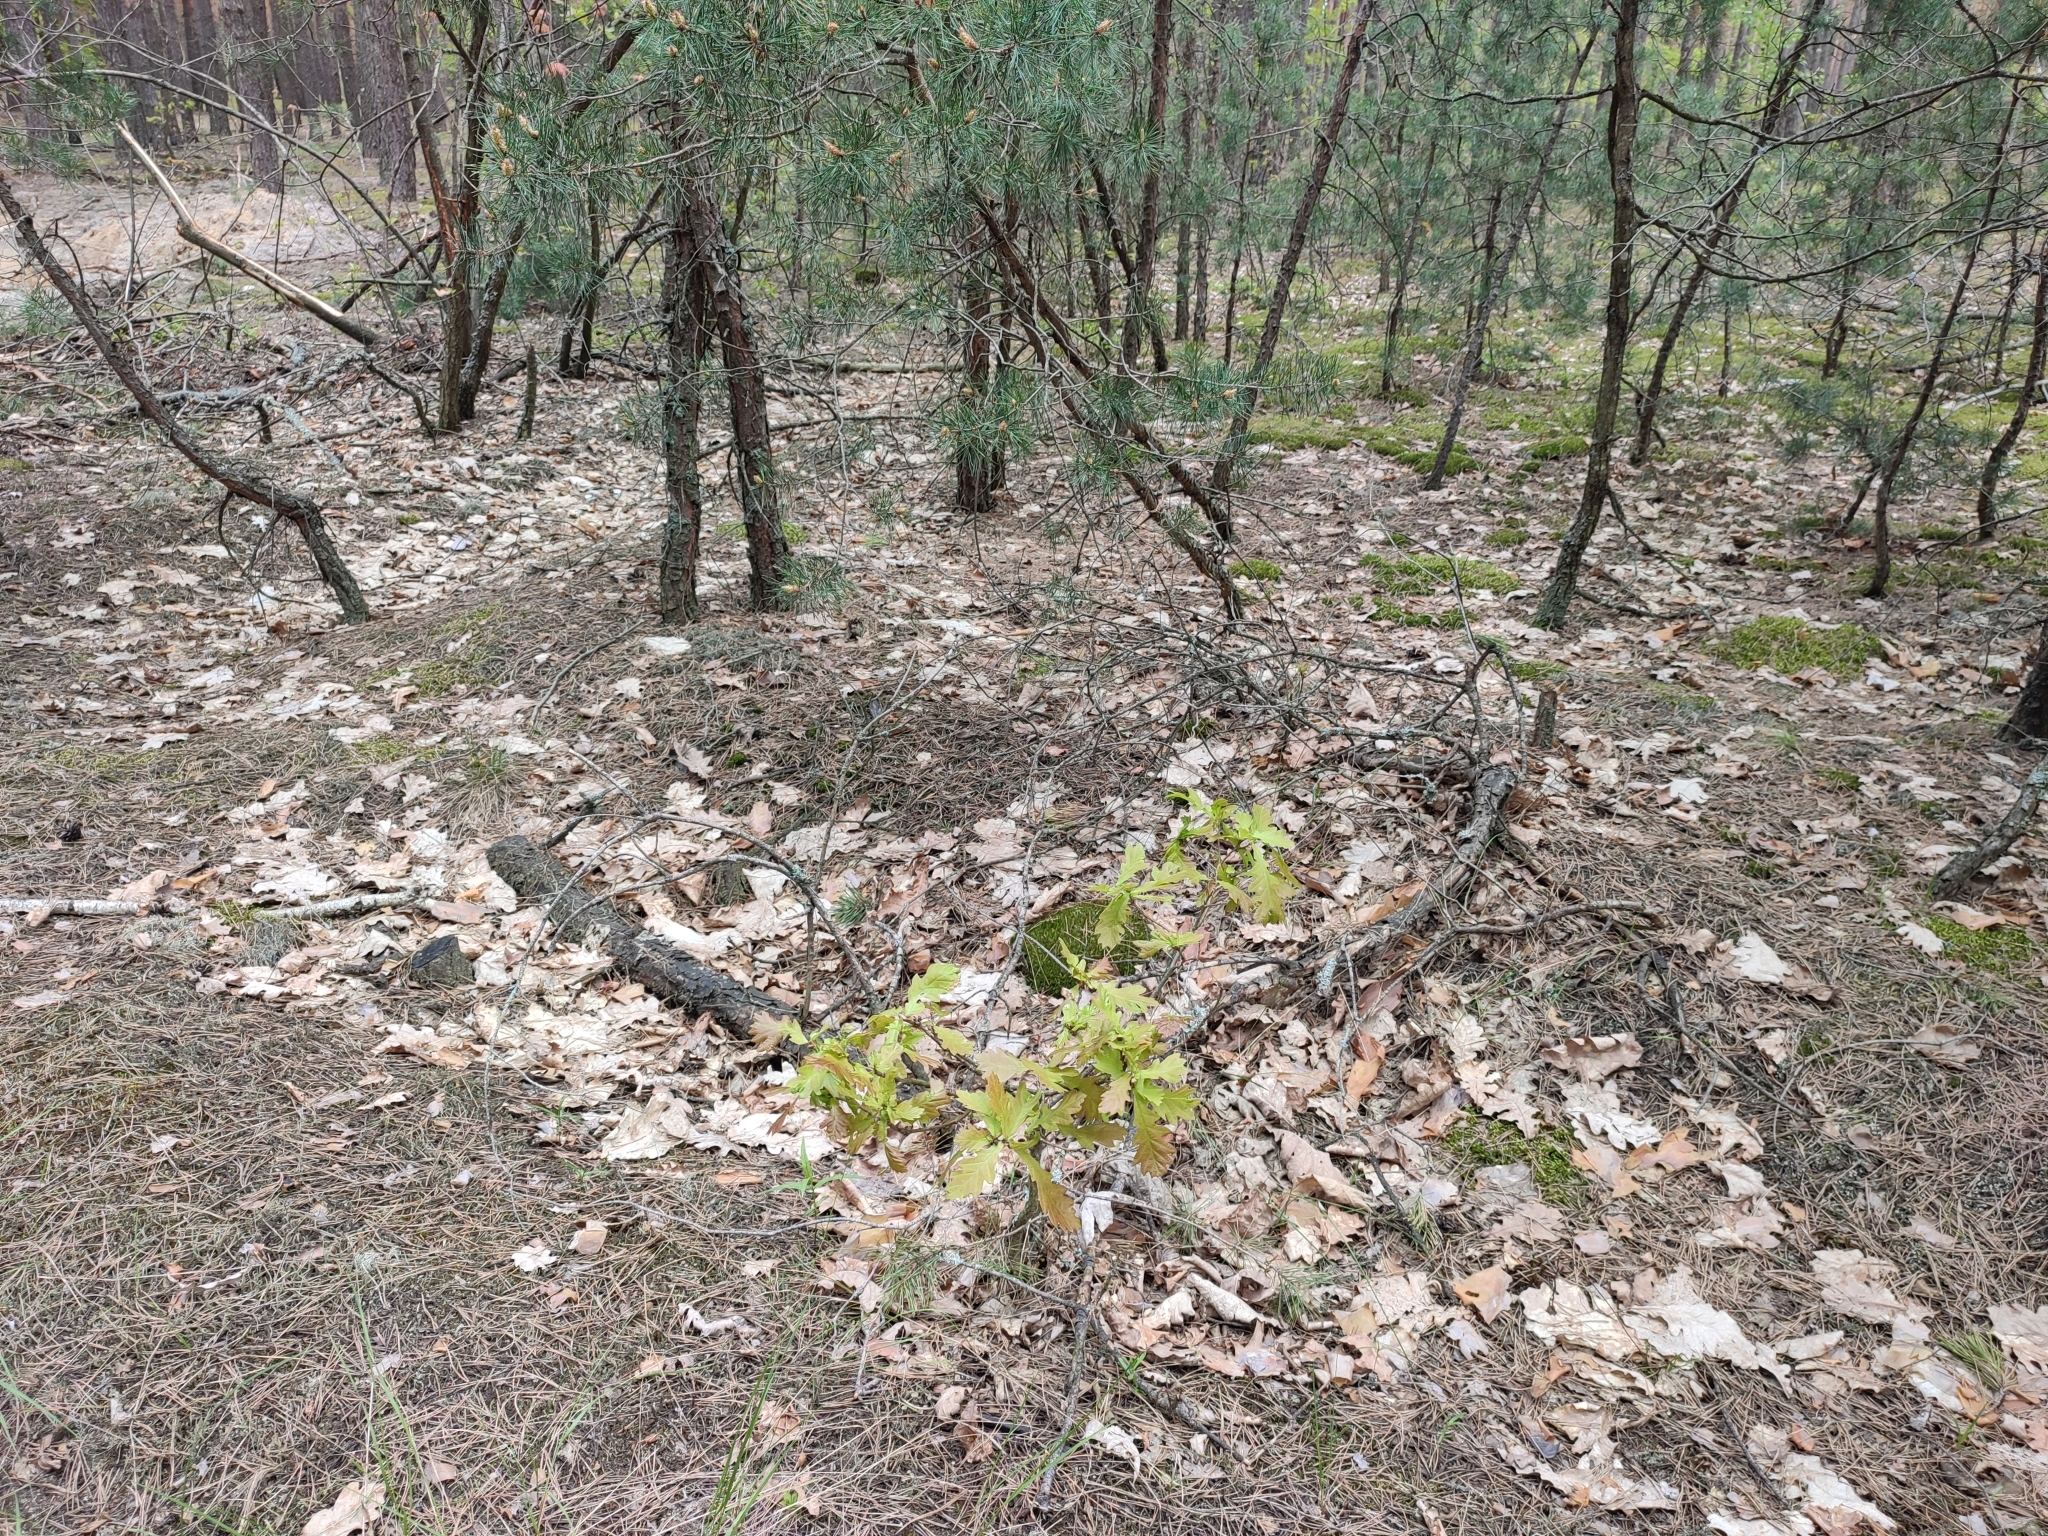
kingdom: Plantae
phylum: Tracheophyta
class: Magnoliopsida
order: Fagales
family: Fagaceae
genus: Quercus
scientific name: Quercus robur
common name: Pedunculate oak
